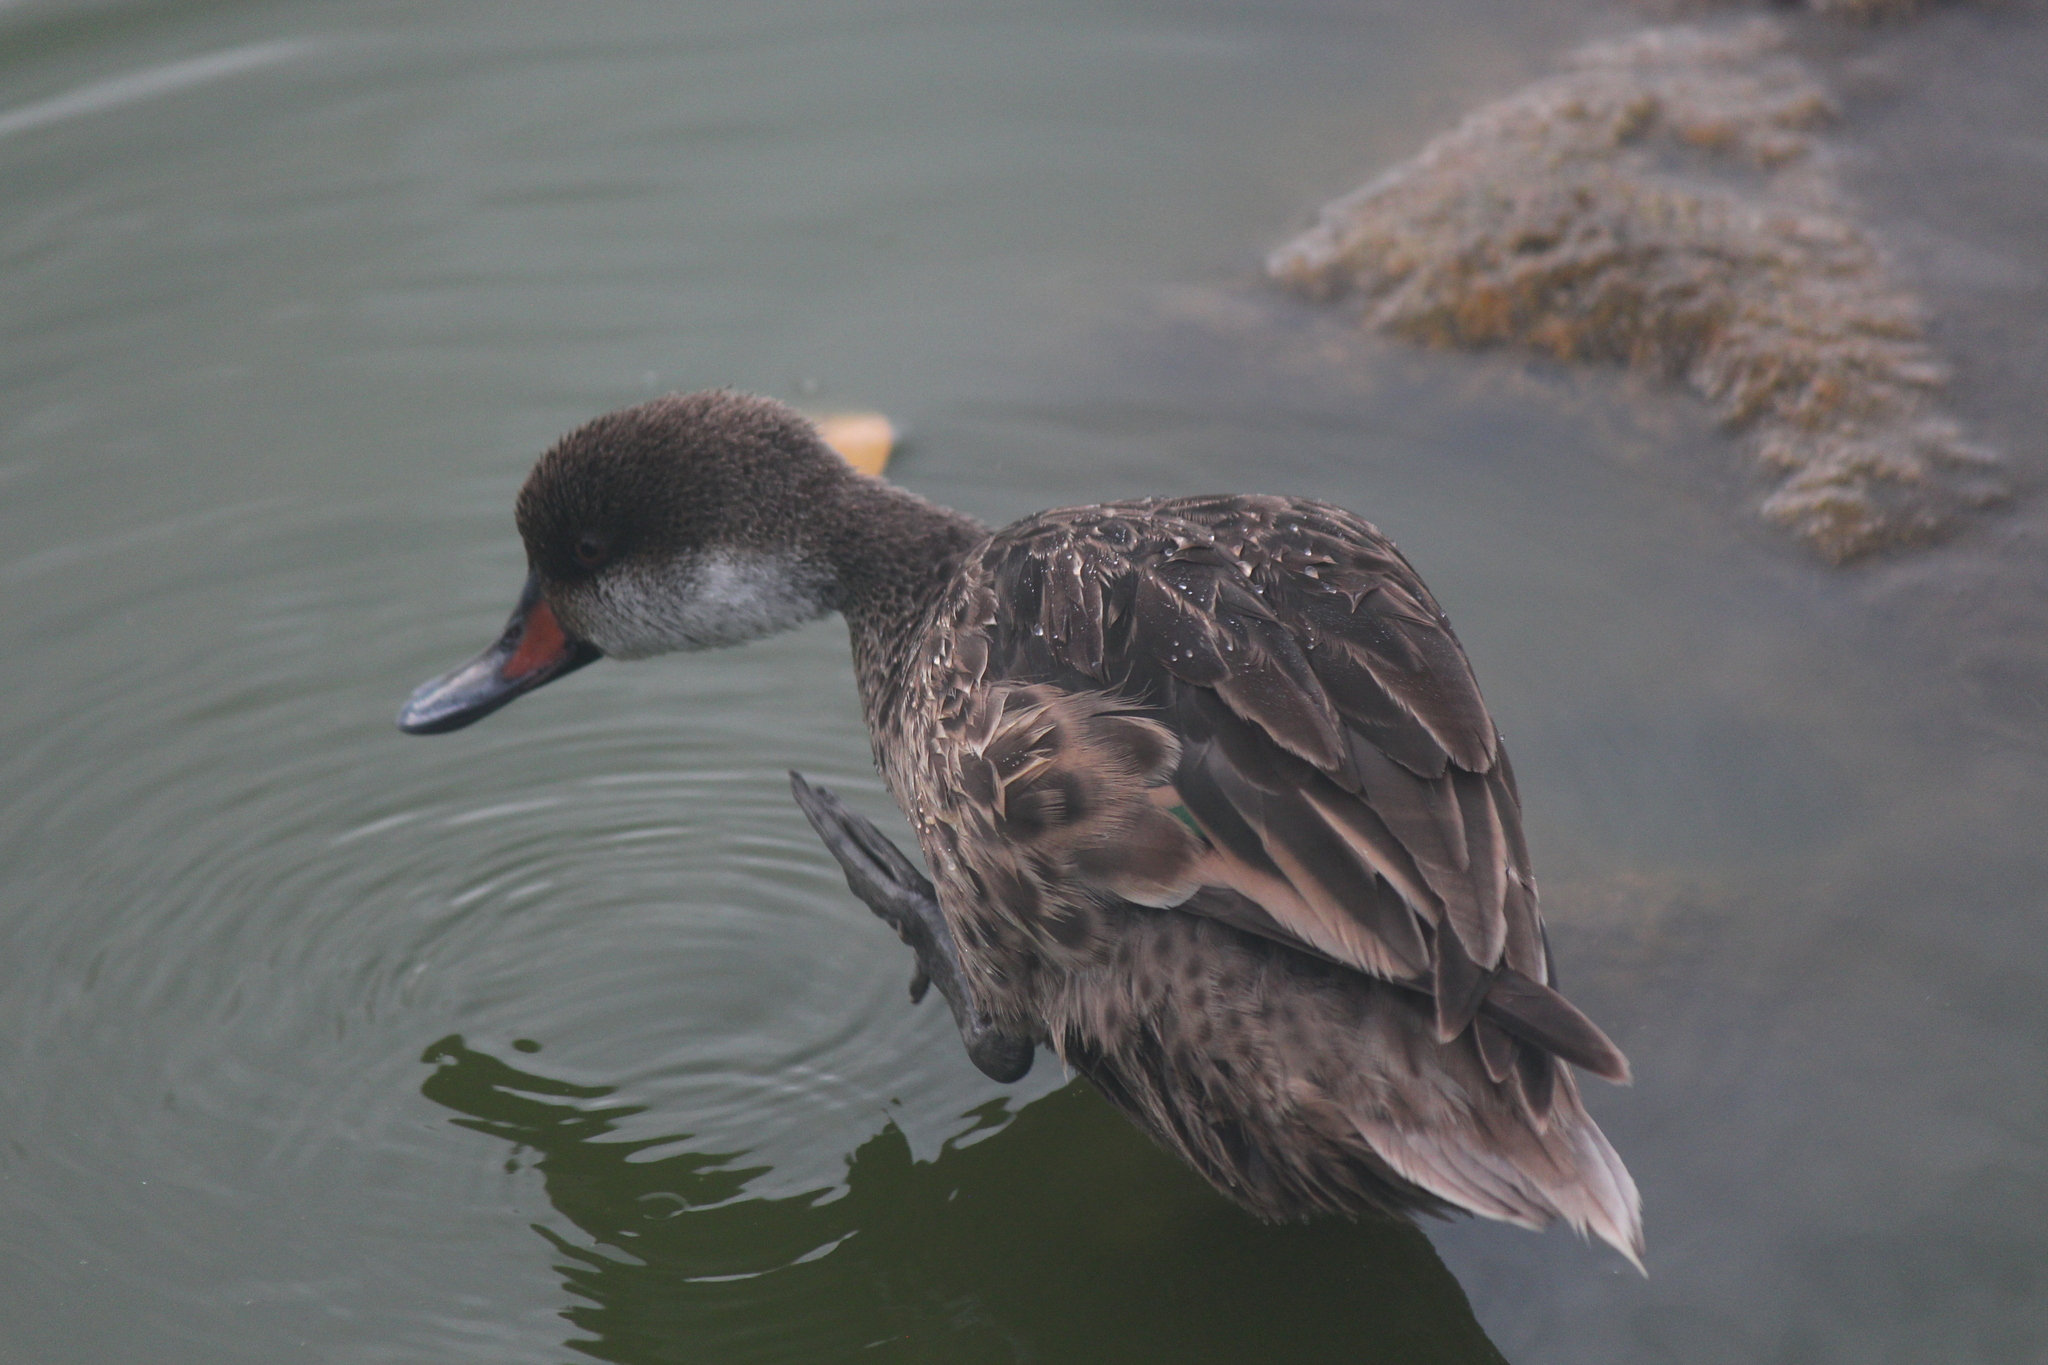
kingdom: Animalia
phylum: Chordata
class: Aves
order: Anseriformes
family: Anatidae
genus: Anas
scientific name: Anas bahamensis
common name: White-cheeked pintail
